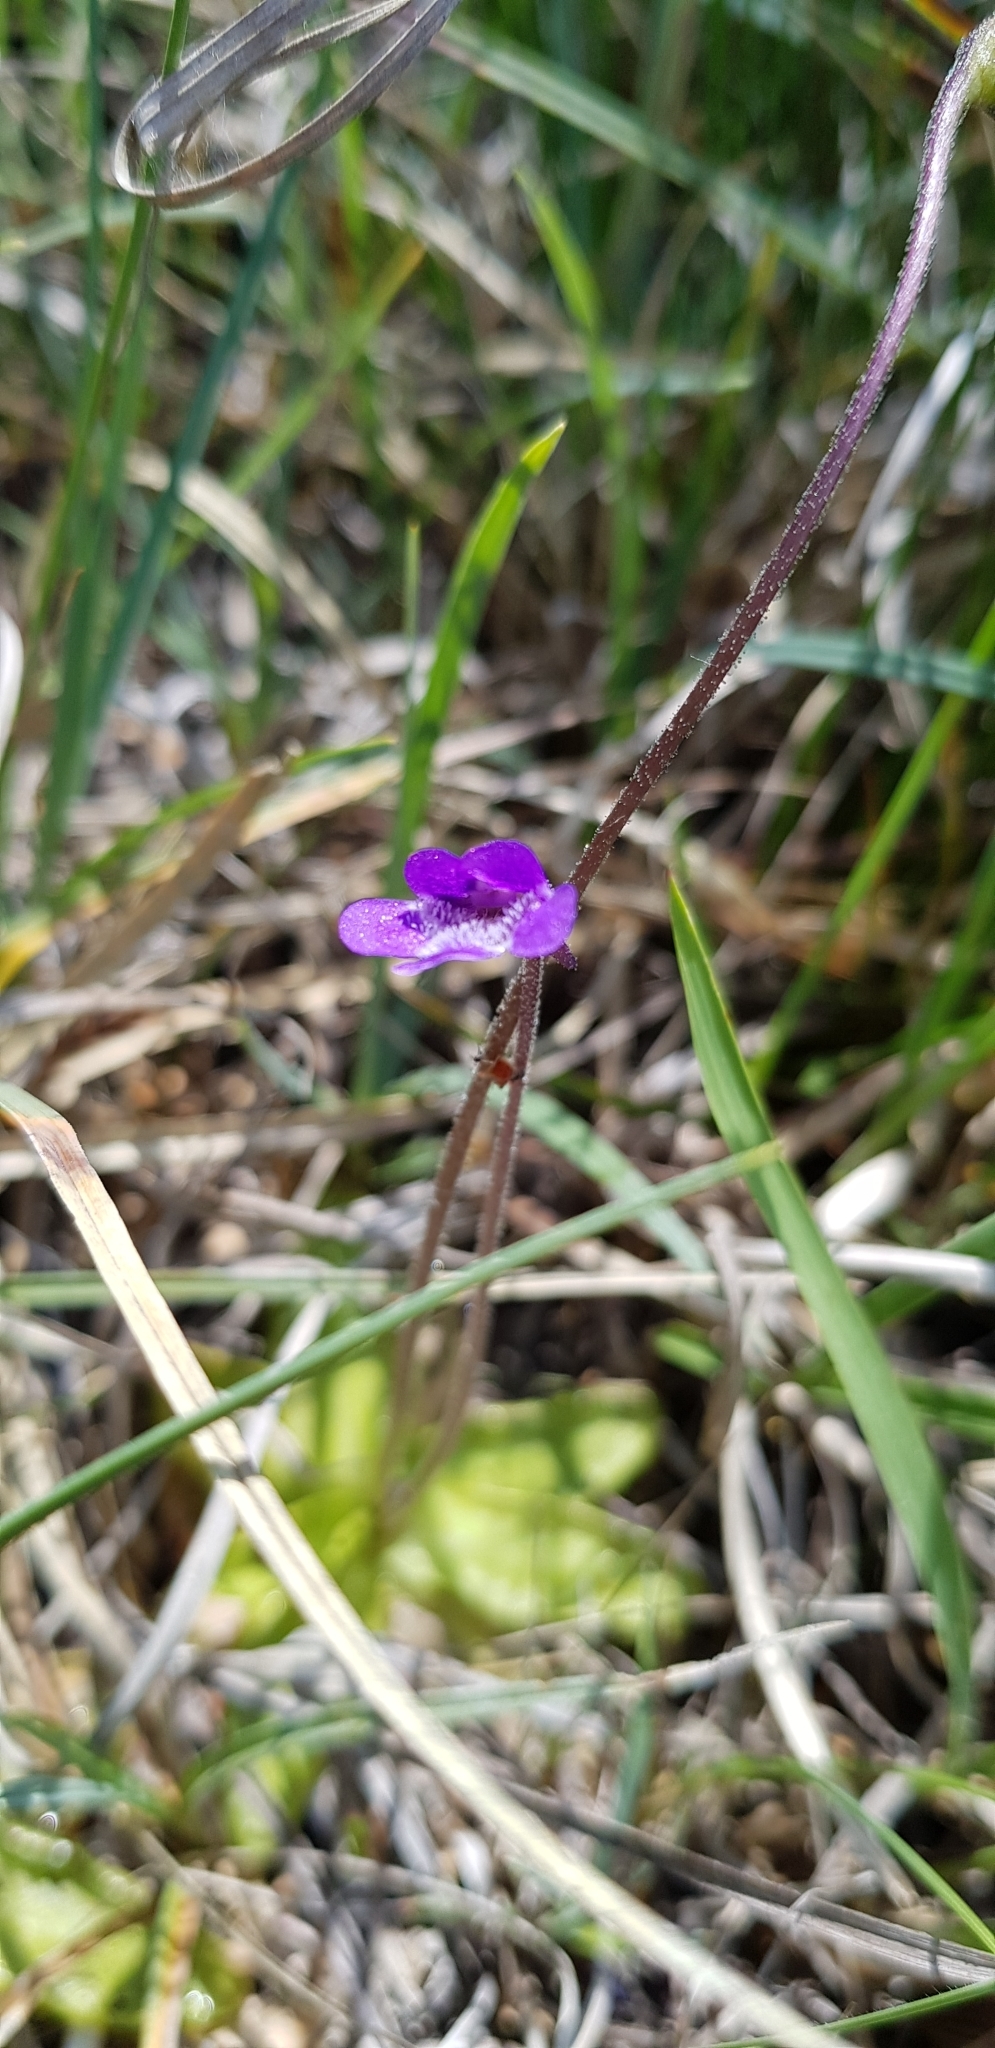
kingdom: Plantae
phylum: Tracheophyta
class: Magnoliopsida
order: Lamiales
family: Lentibulariaceae
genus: Pinguicula
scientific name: Pinguicula vulgaris
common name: Common butterwort
